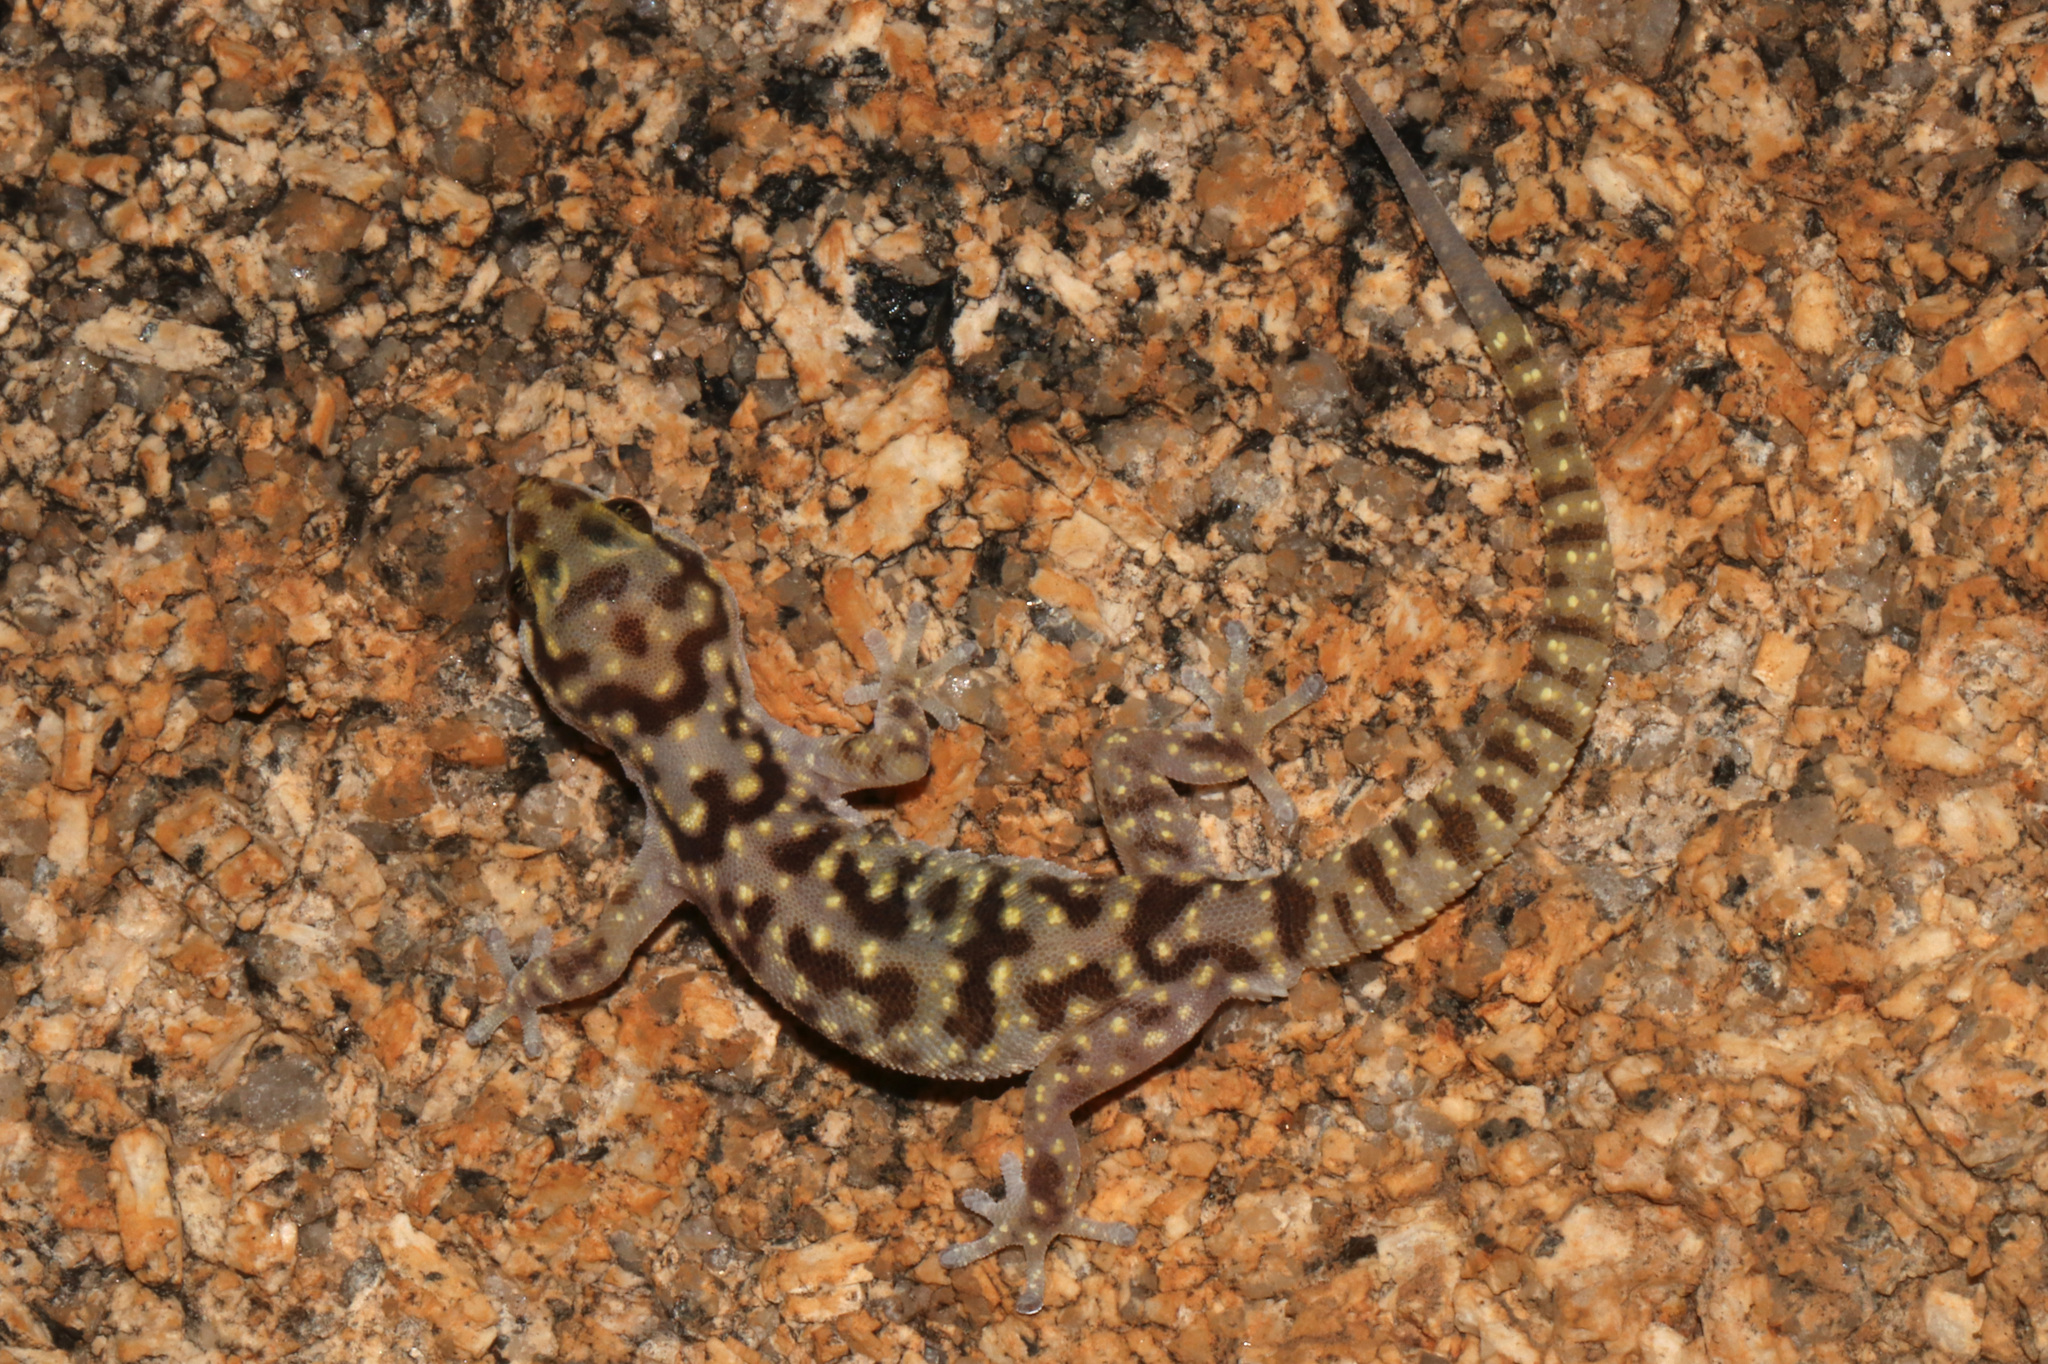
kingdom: Animalia
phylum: Chordata
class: Squamata
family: Gekkonidae
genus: Pachydactylus
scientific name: Pachydactylus bicolor
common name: Two-colored thick-toed gecko
